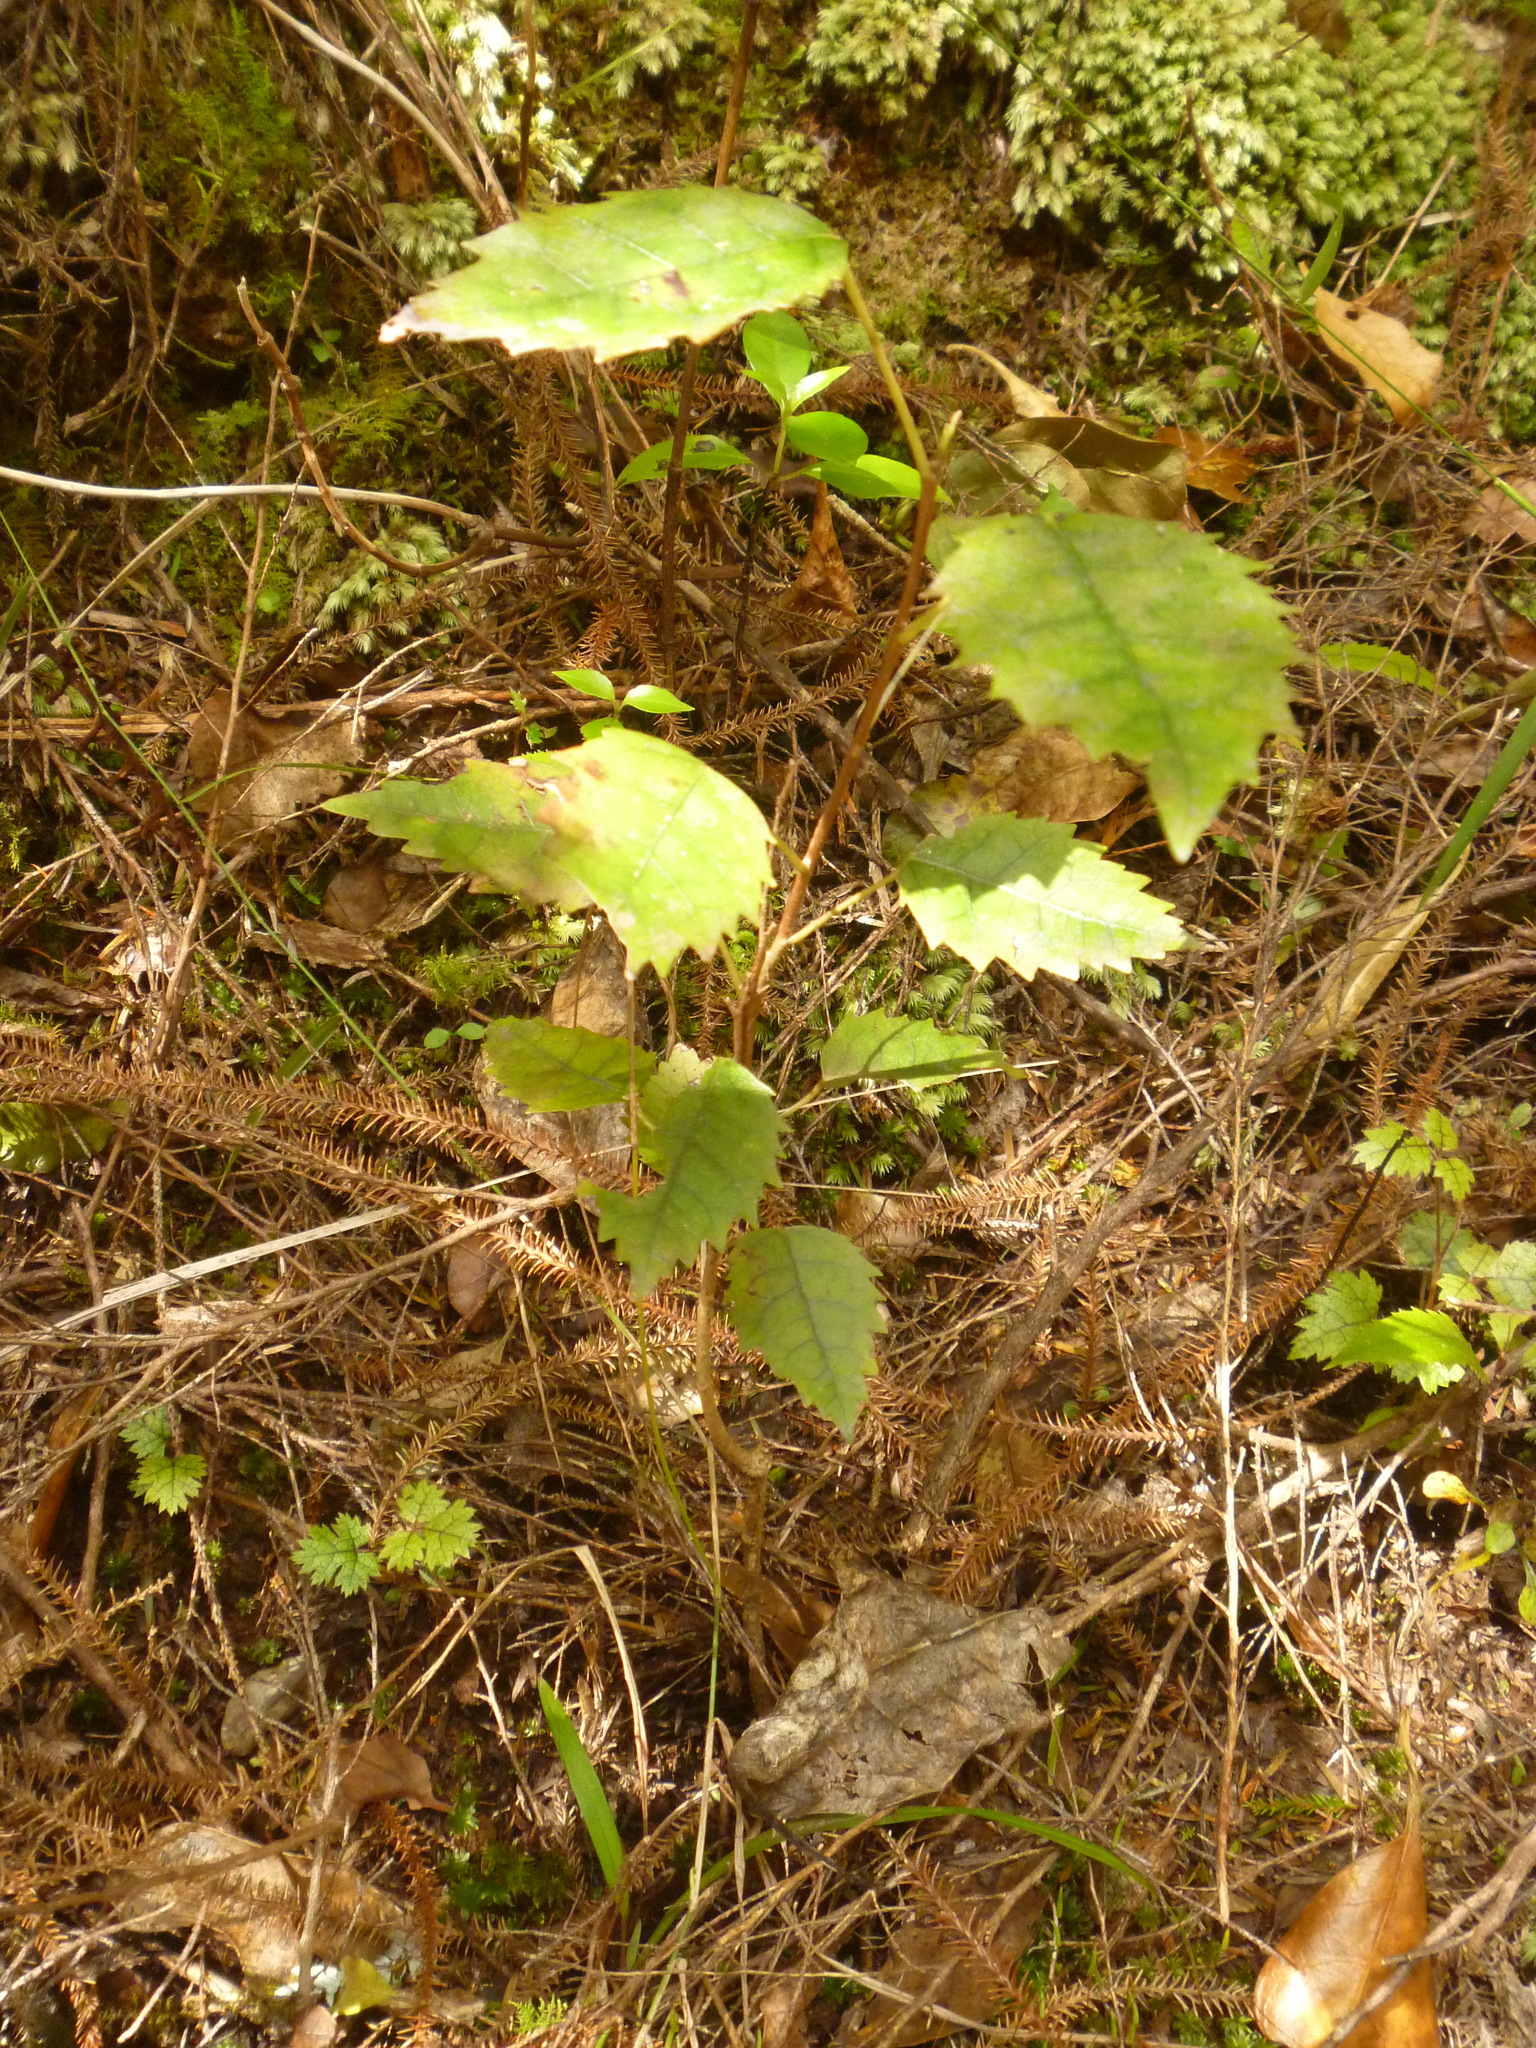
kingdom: Plantae
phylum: Tracheophyta
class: Magnoliopsida
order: Malvales
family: Malvaceae
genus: Hoheria
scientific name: Hoheria populnea
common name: Lacebark
